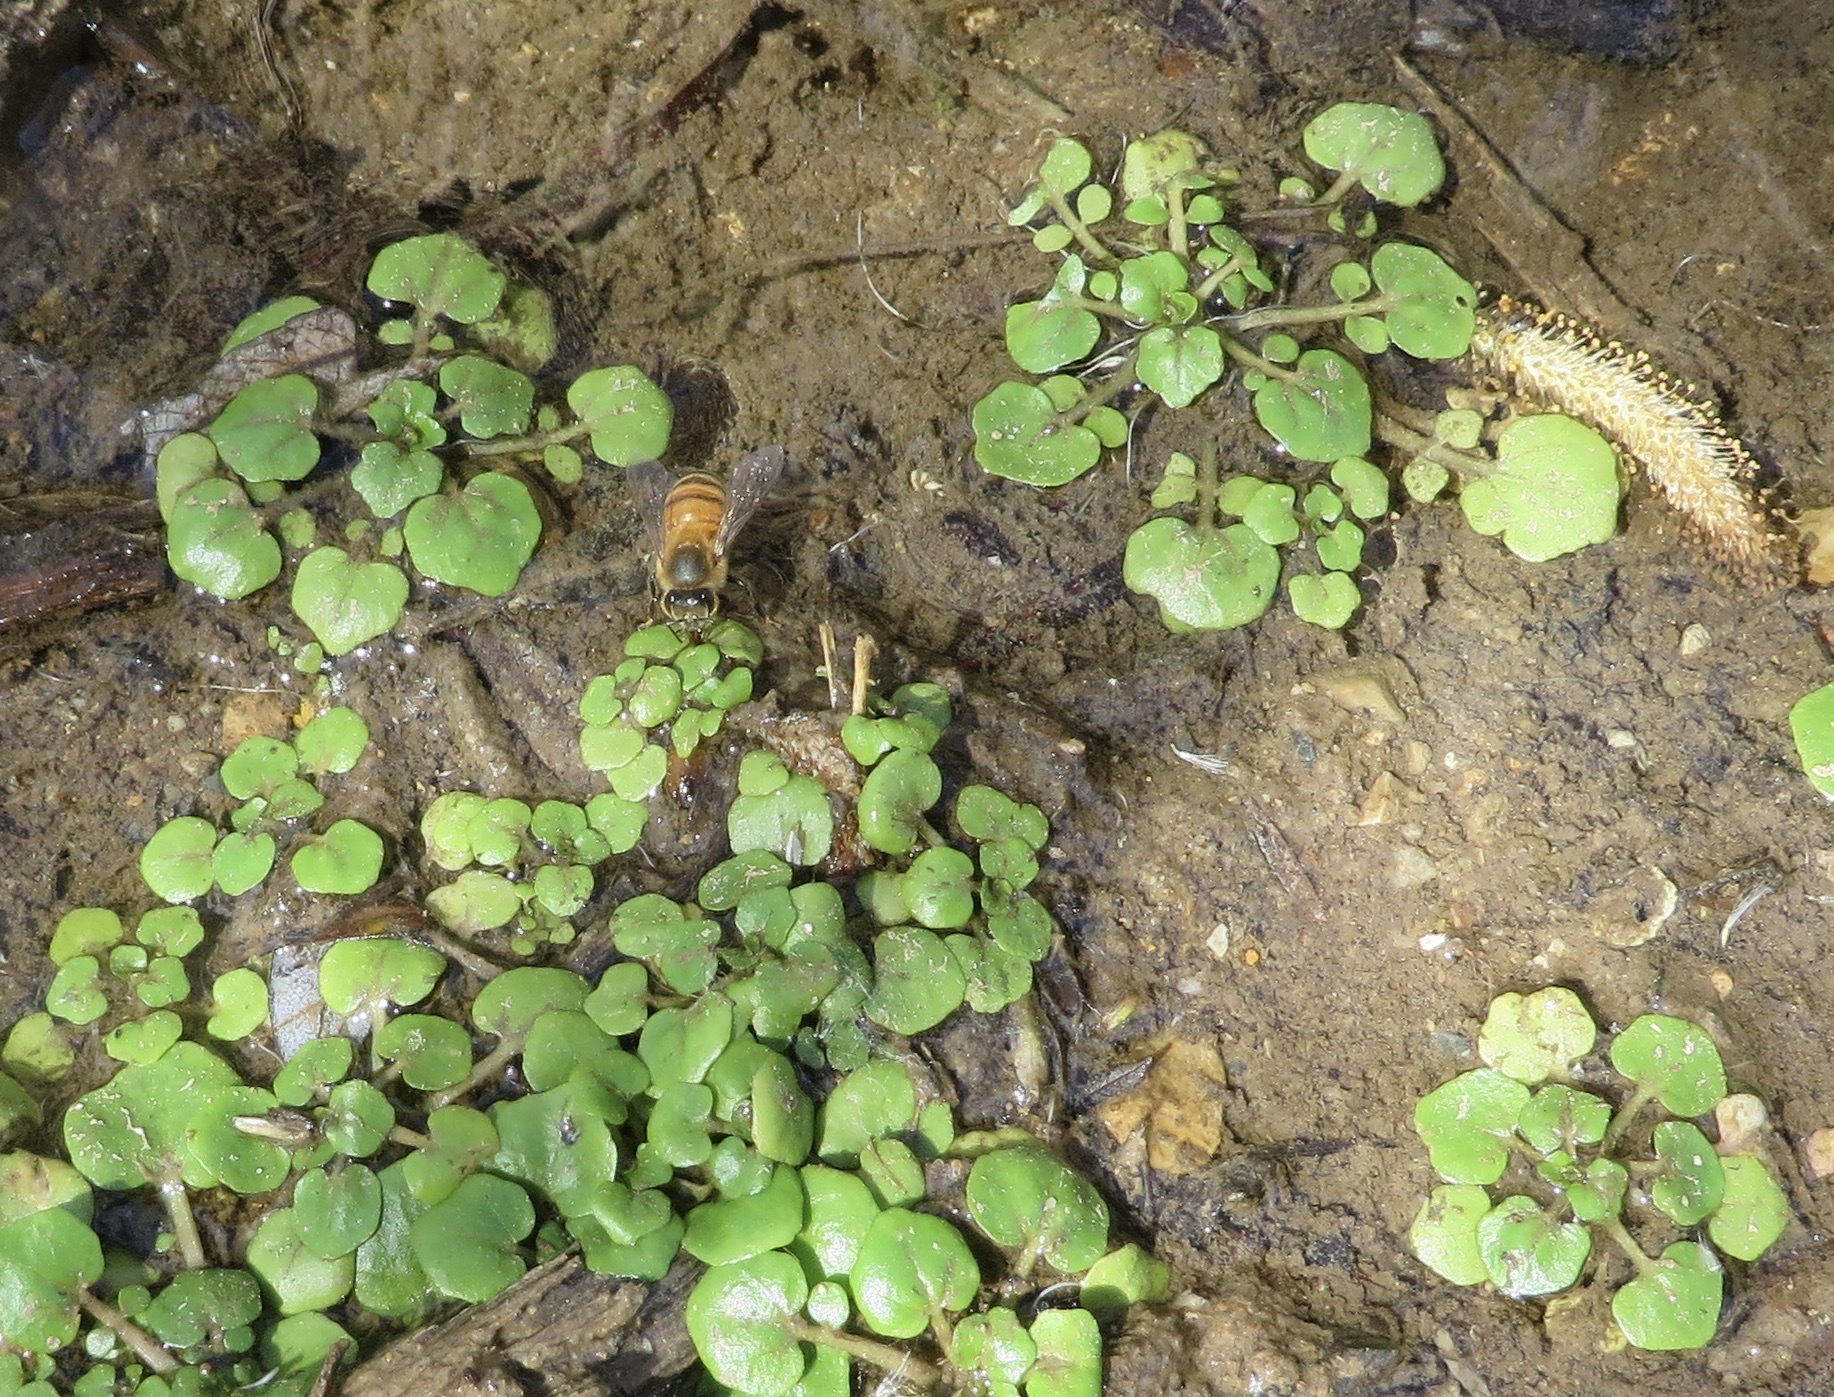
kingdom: Animalia
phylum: Arthropoda
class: Insecta
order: Hymenoptera
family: Apidae
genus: Apis
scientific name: Apis mellifera
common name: Honey bee
